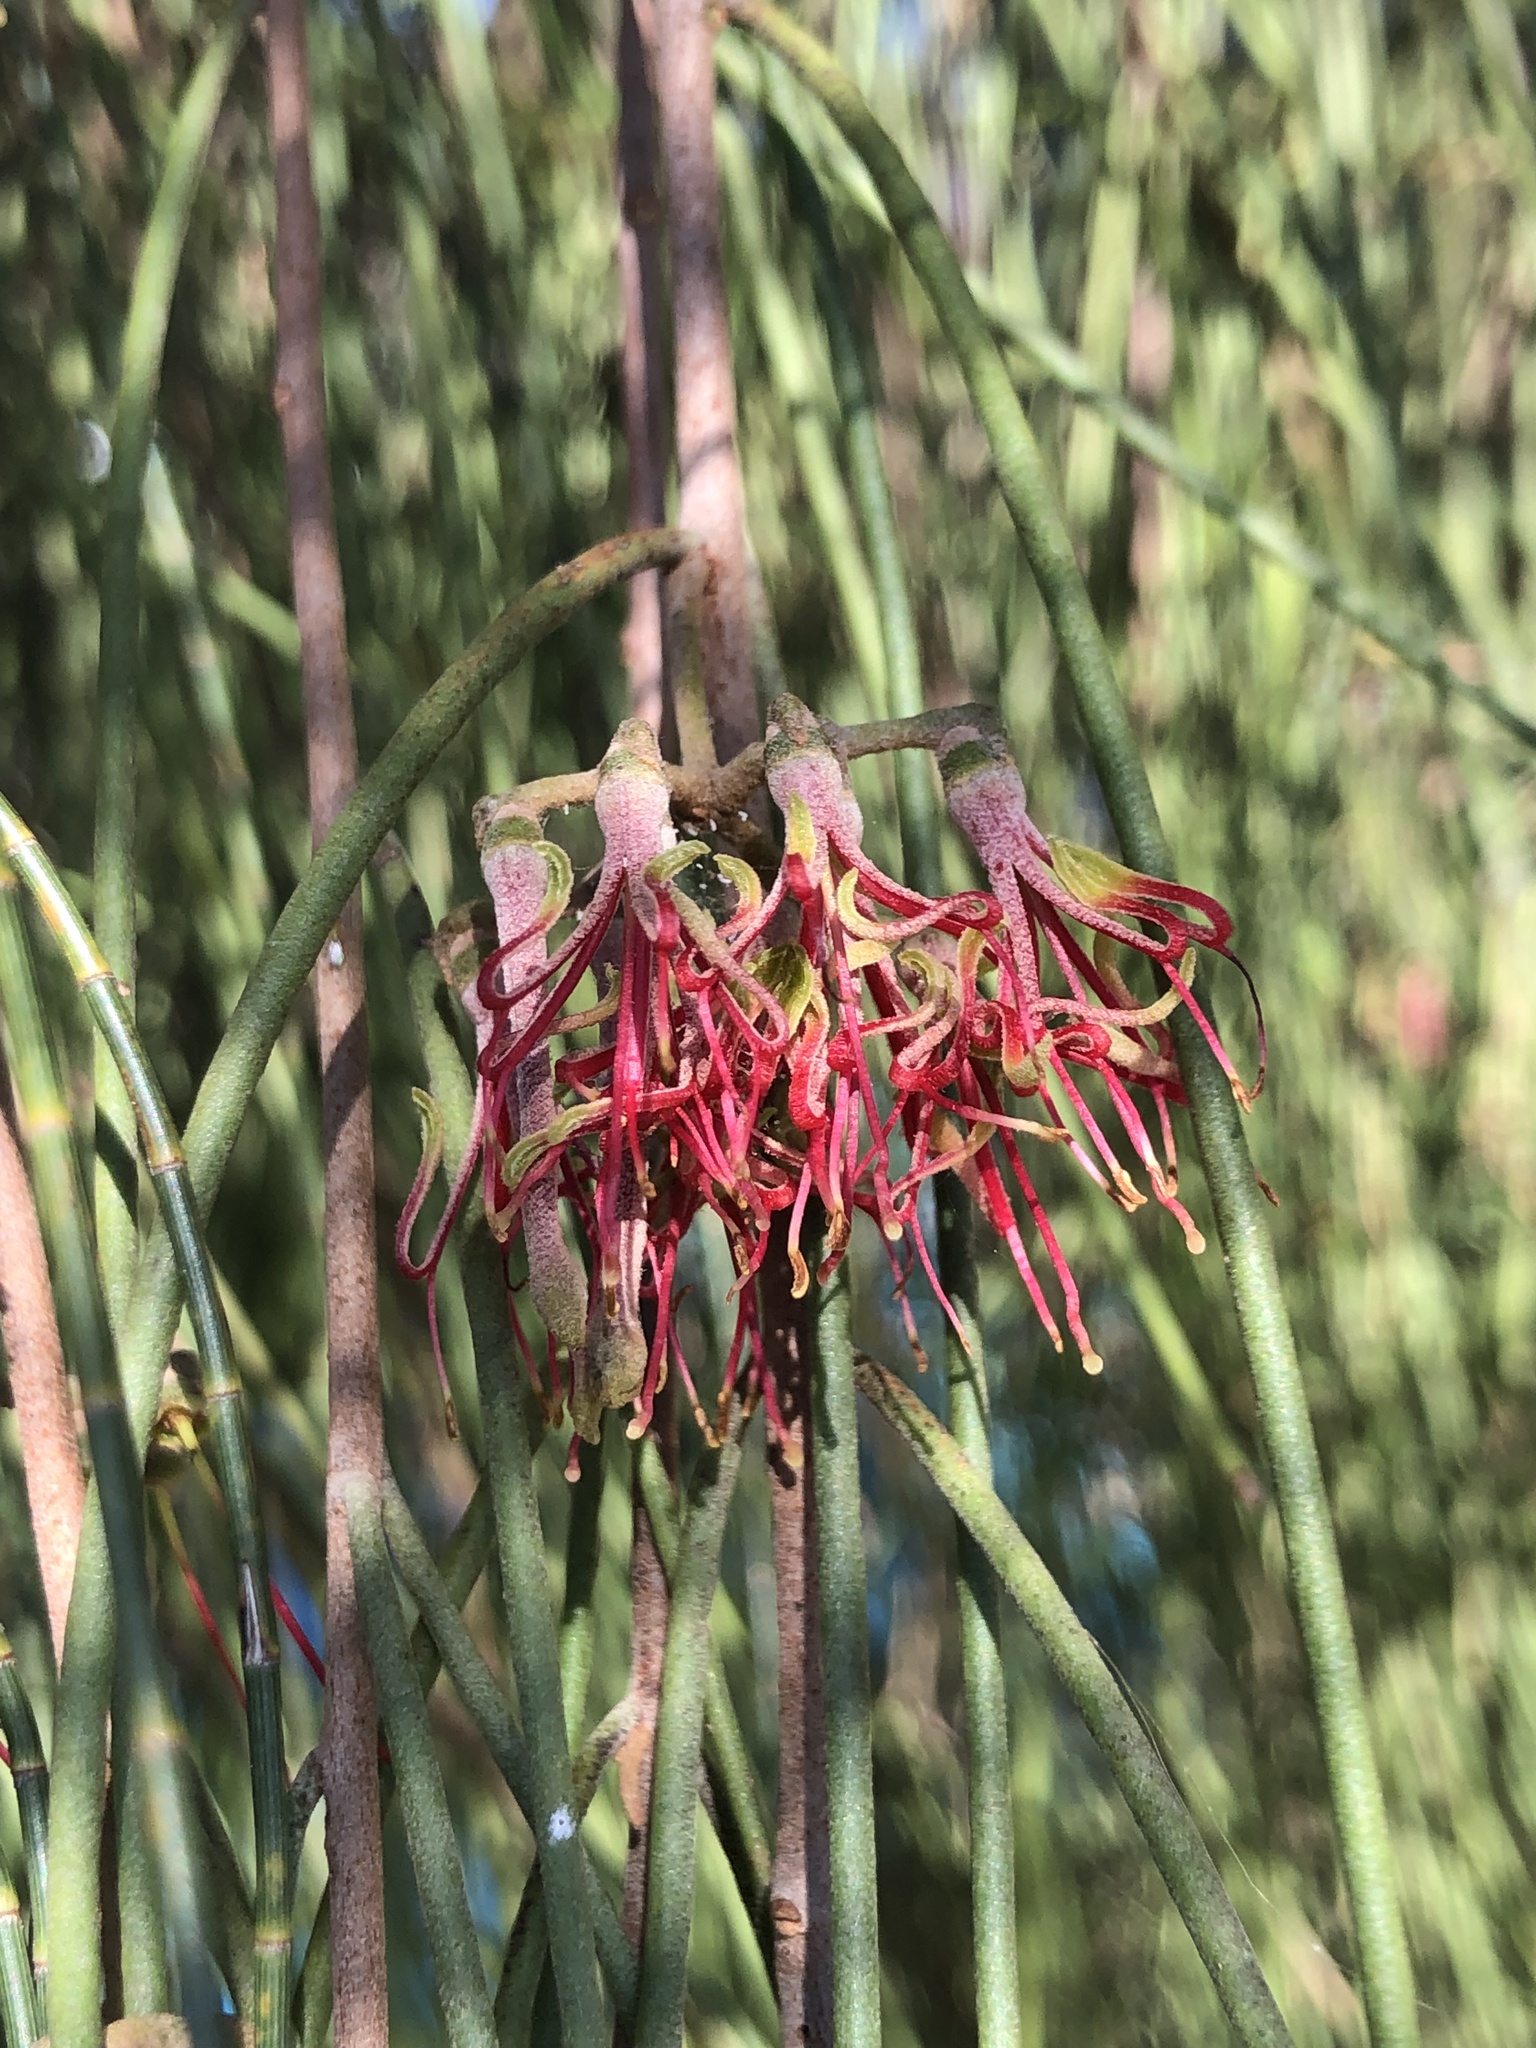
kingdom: Plantae
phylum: Tracheophyta
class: Magnoliopsida
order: Santalales
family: Loranthaceae
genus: Amyema
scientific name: Amyema cambagei
